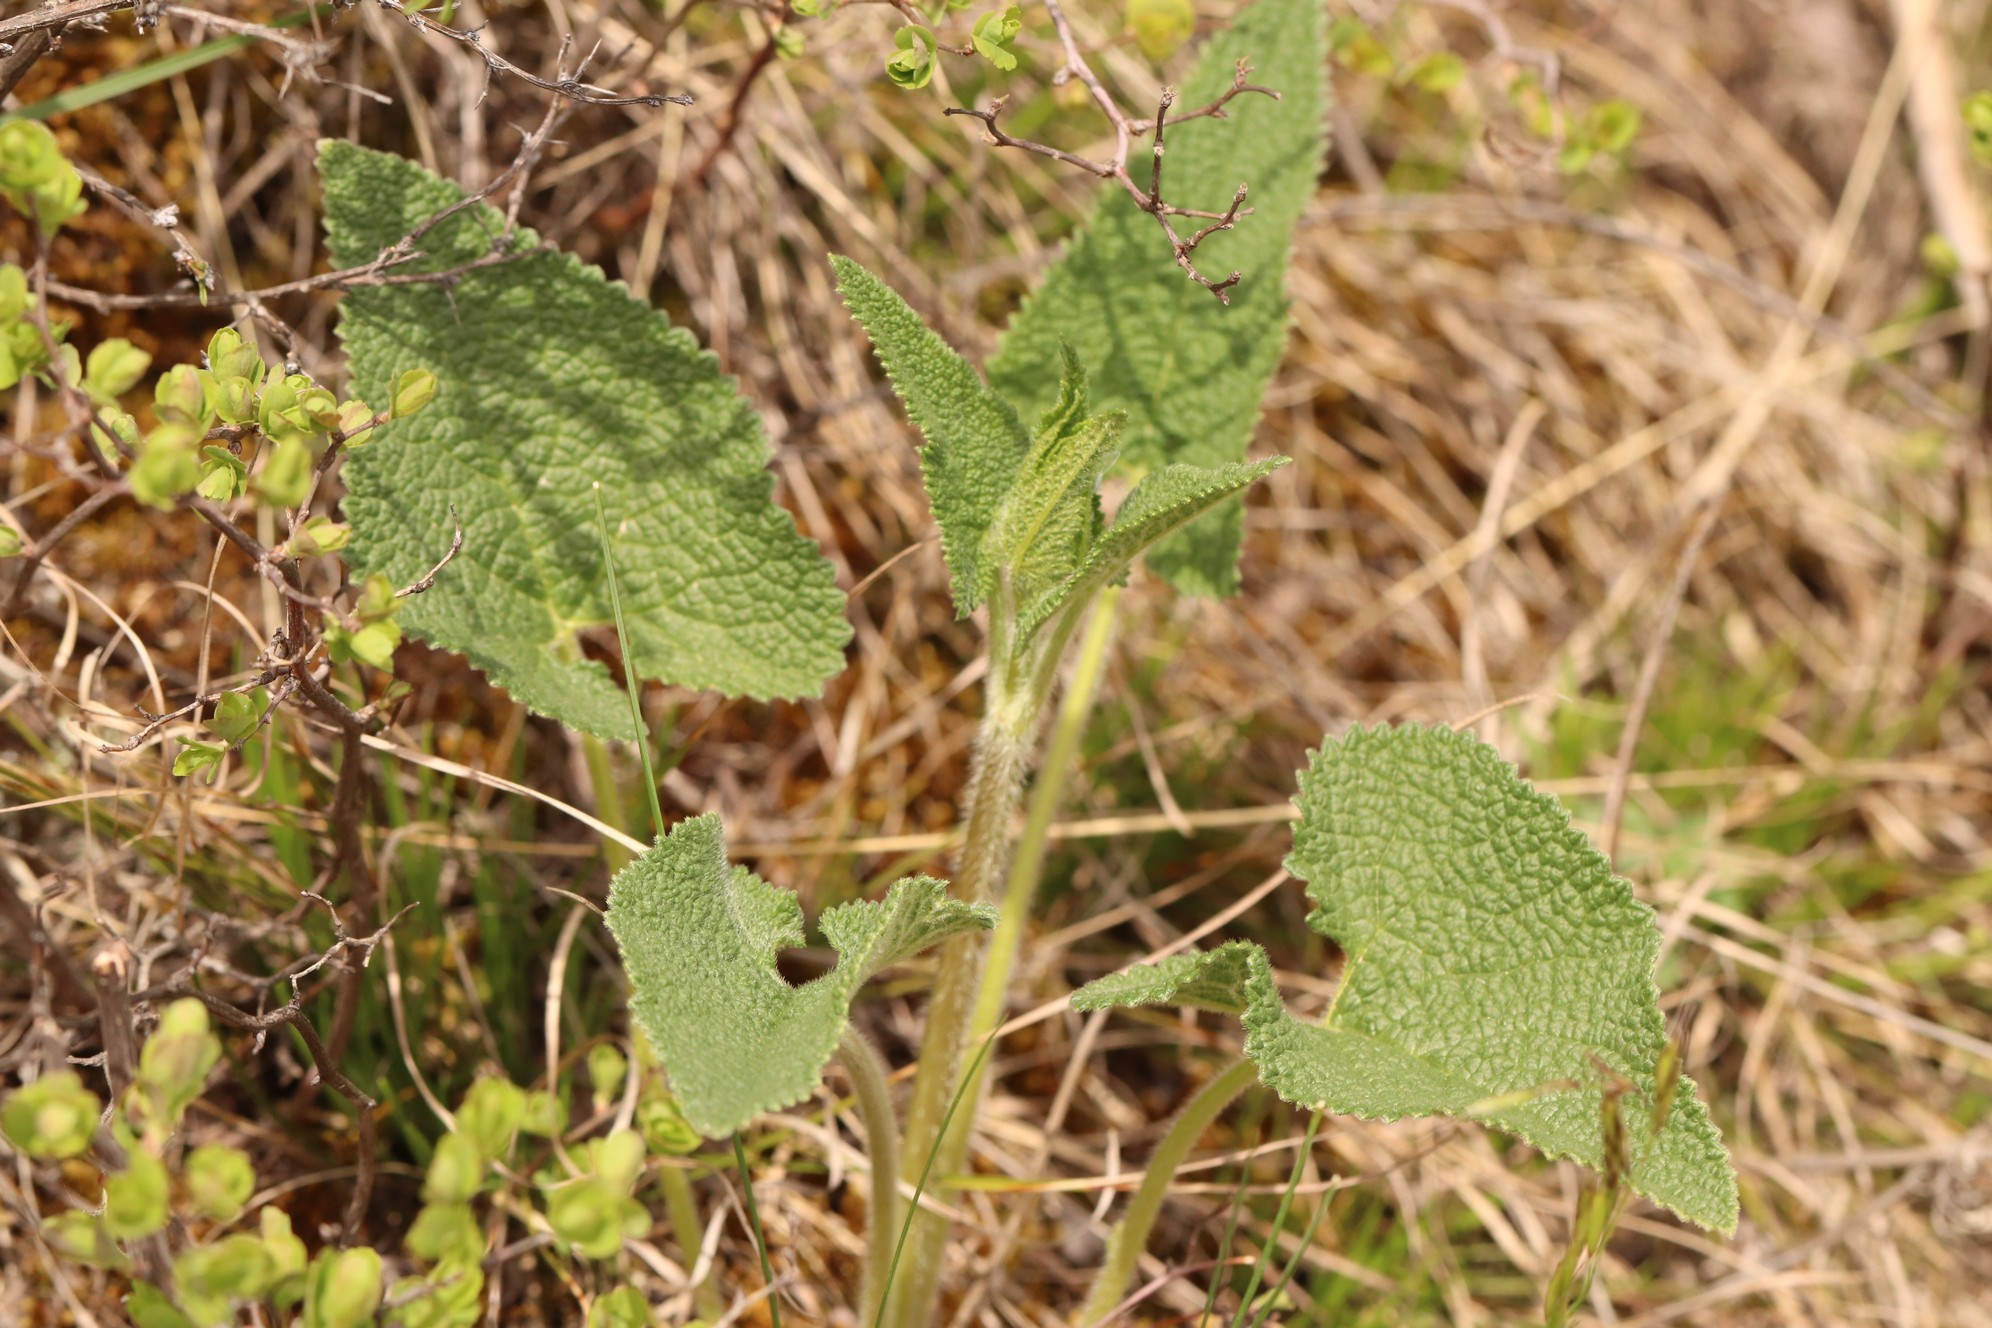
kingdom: Plantae
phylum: Tracheophyta
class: Magnoliopsida
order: Lamiales
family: Lamiaceae
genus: Phlomoides
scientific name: Phlomoides tuberosa
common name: Tuberous jerusalem sage
